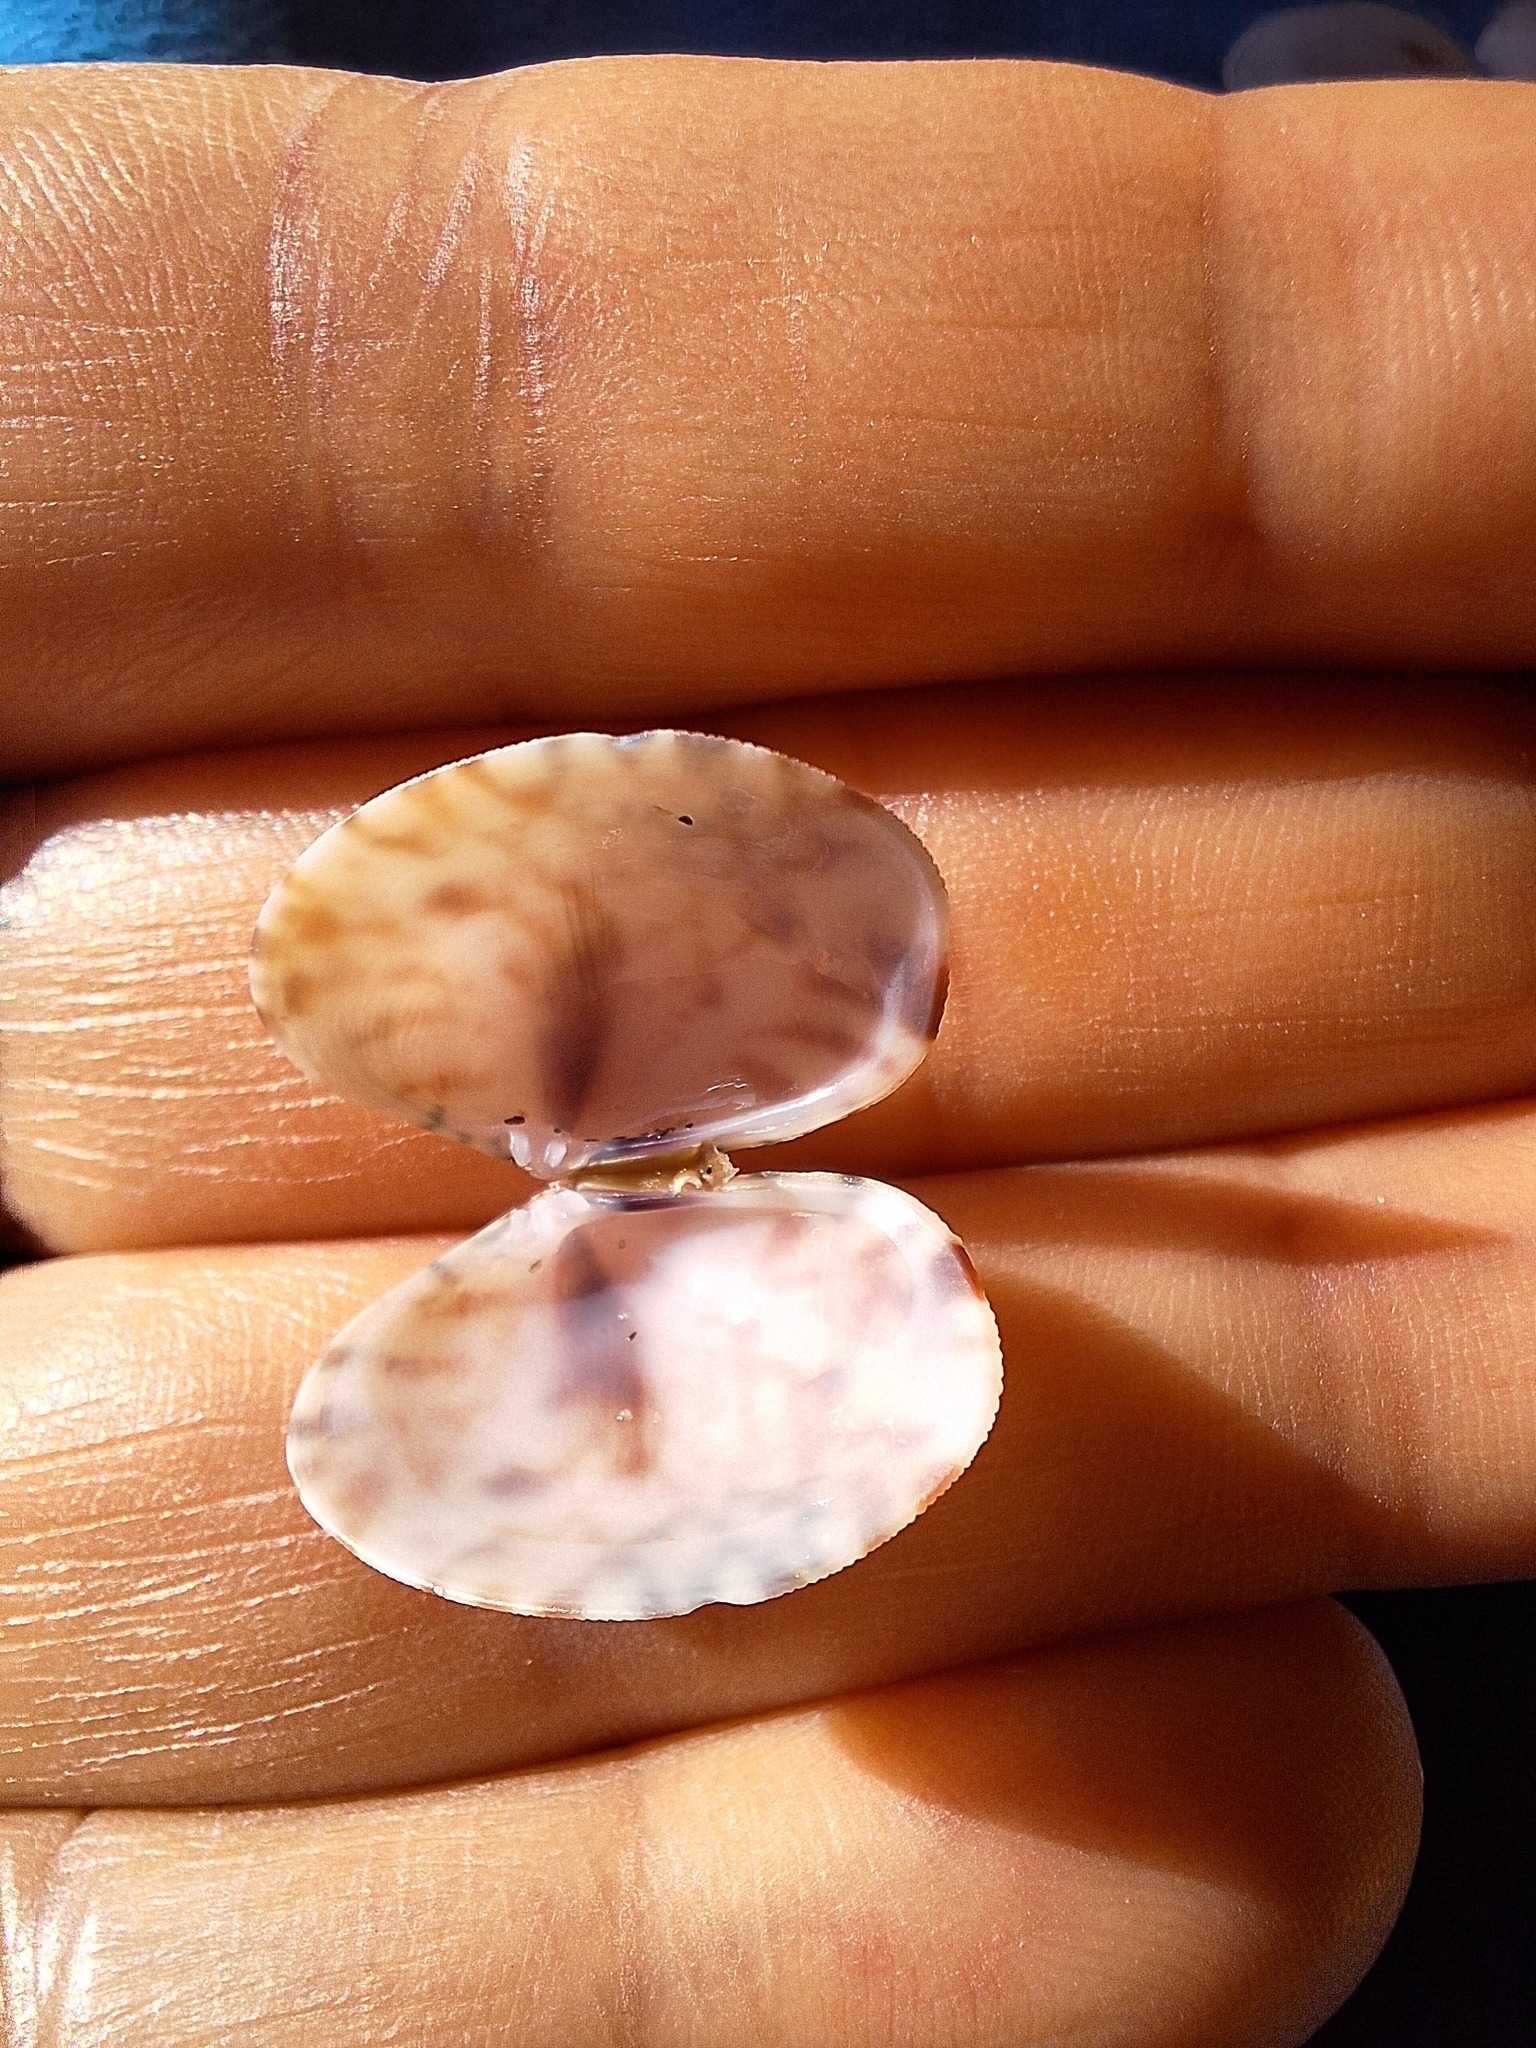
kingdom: Animalia
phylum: Mollusca
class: Bivalvia
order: Venerida
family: Veneridae
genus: Ruditapes
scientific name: Ruditapes decussatus
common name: Chequered carpet shell
